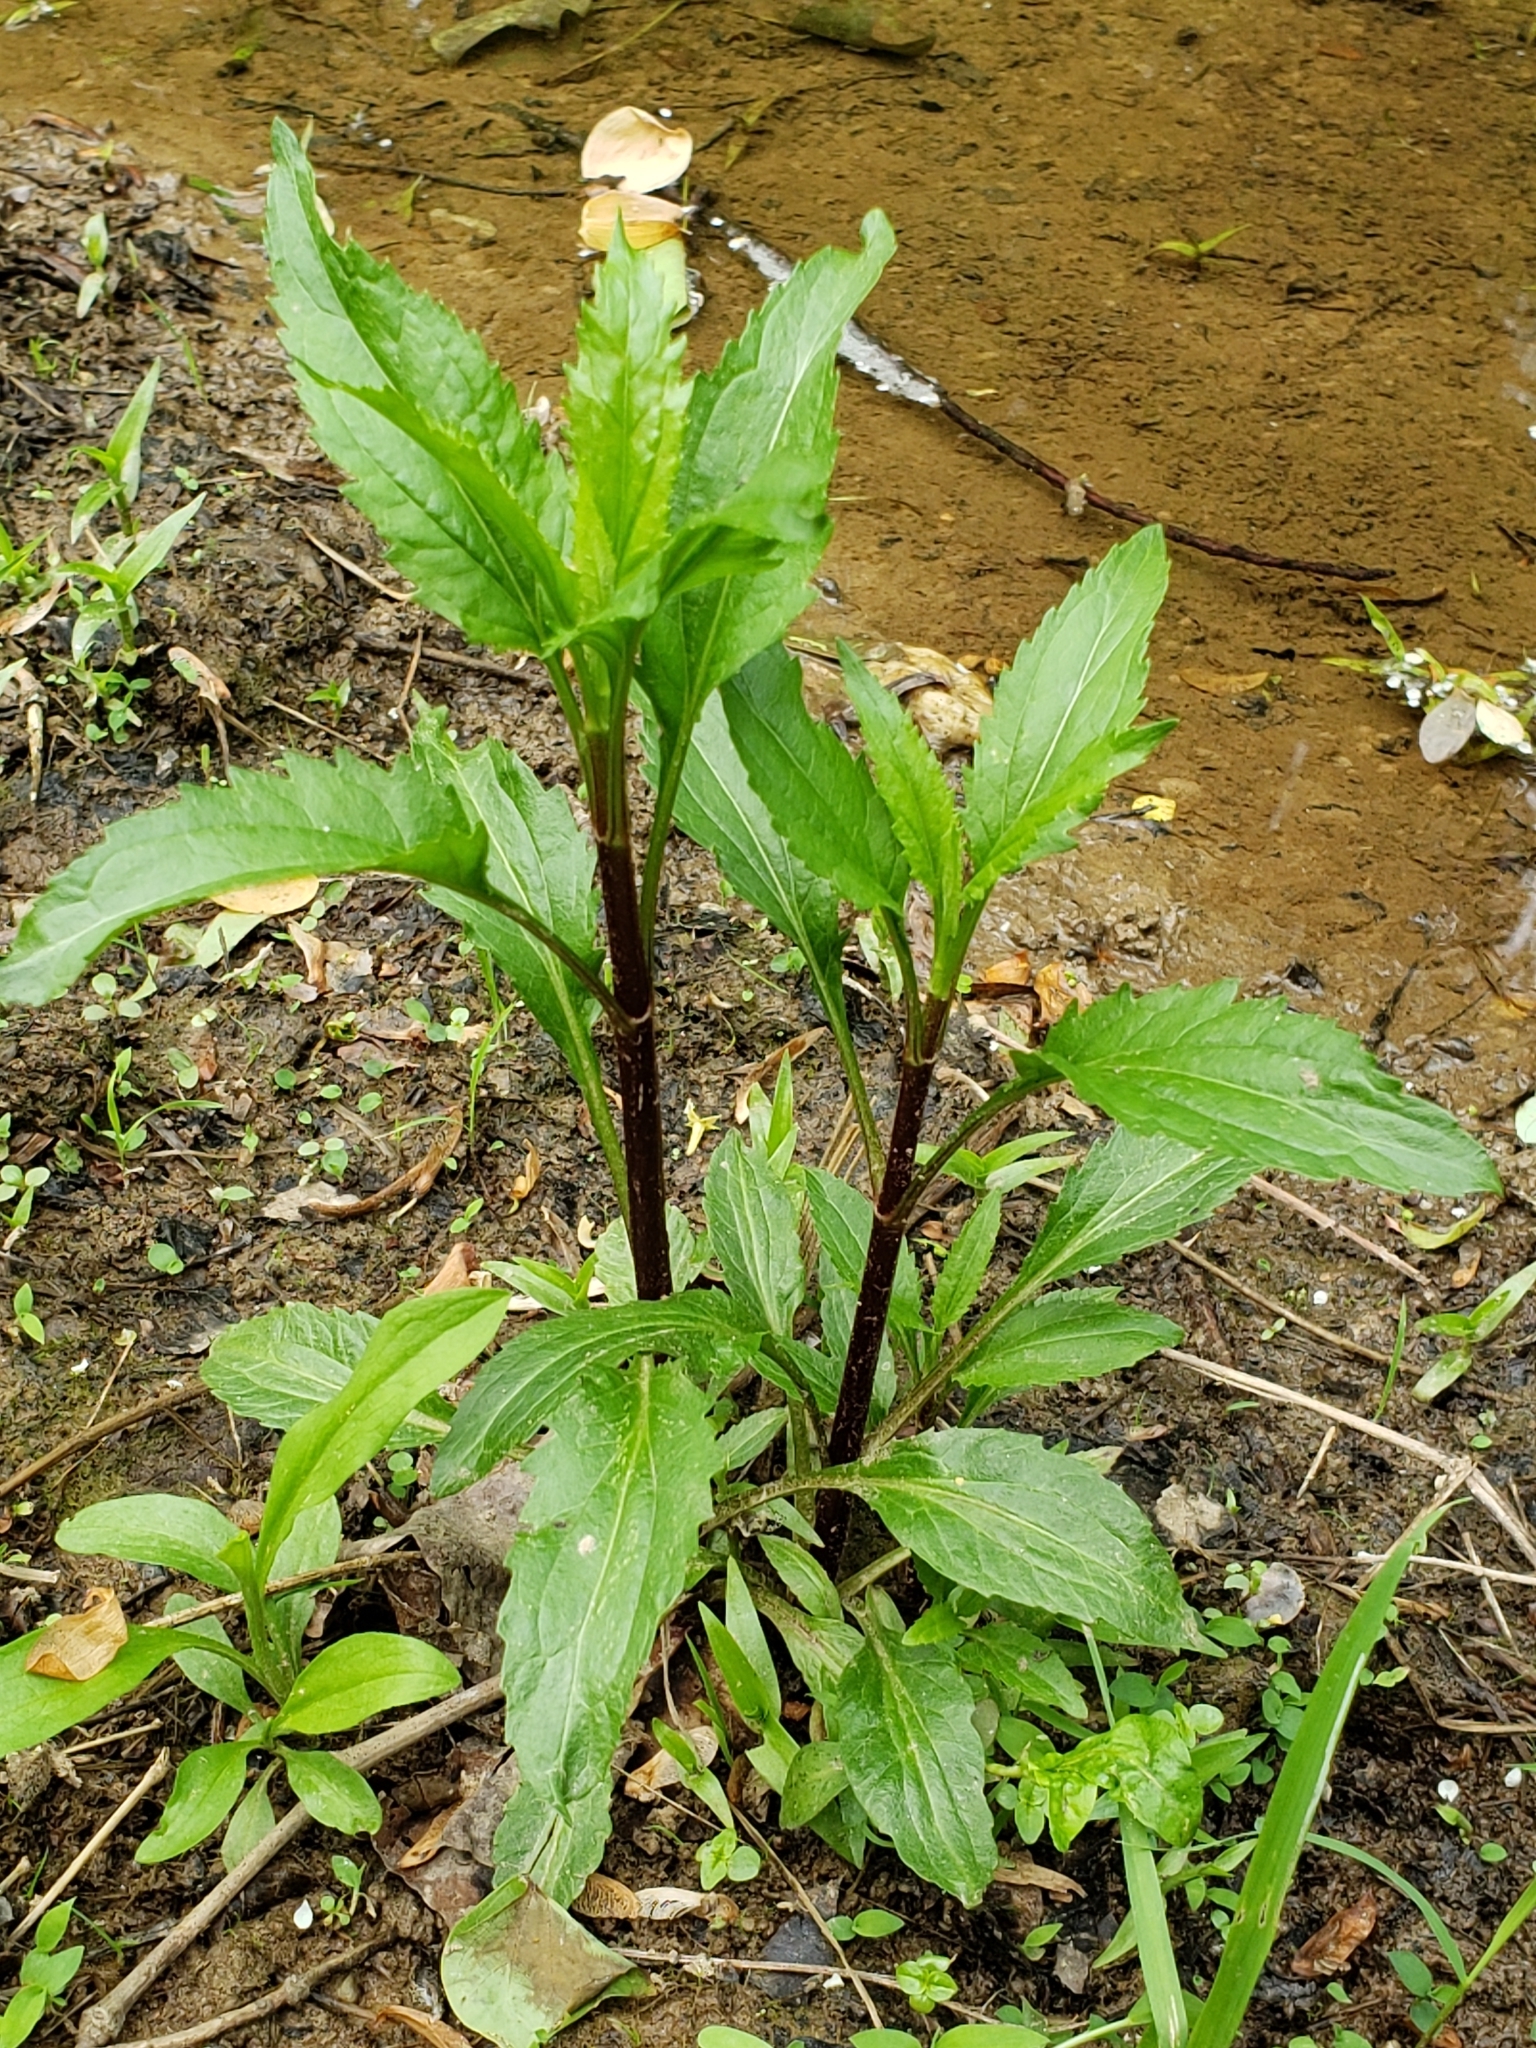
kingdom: Plantae
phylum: Tracheophyta
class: Magnoliopsida
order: Asterales
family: Asteraceae
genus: Eupatorium
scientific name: Eupatorium serotinum
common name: Late boneset
